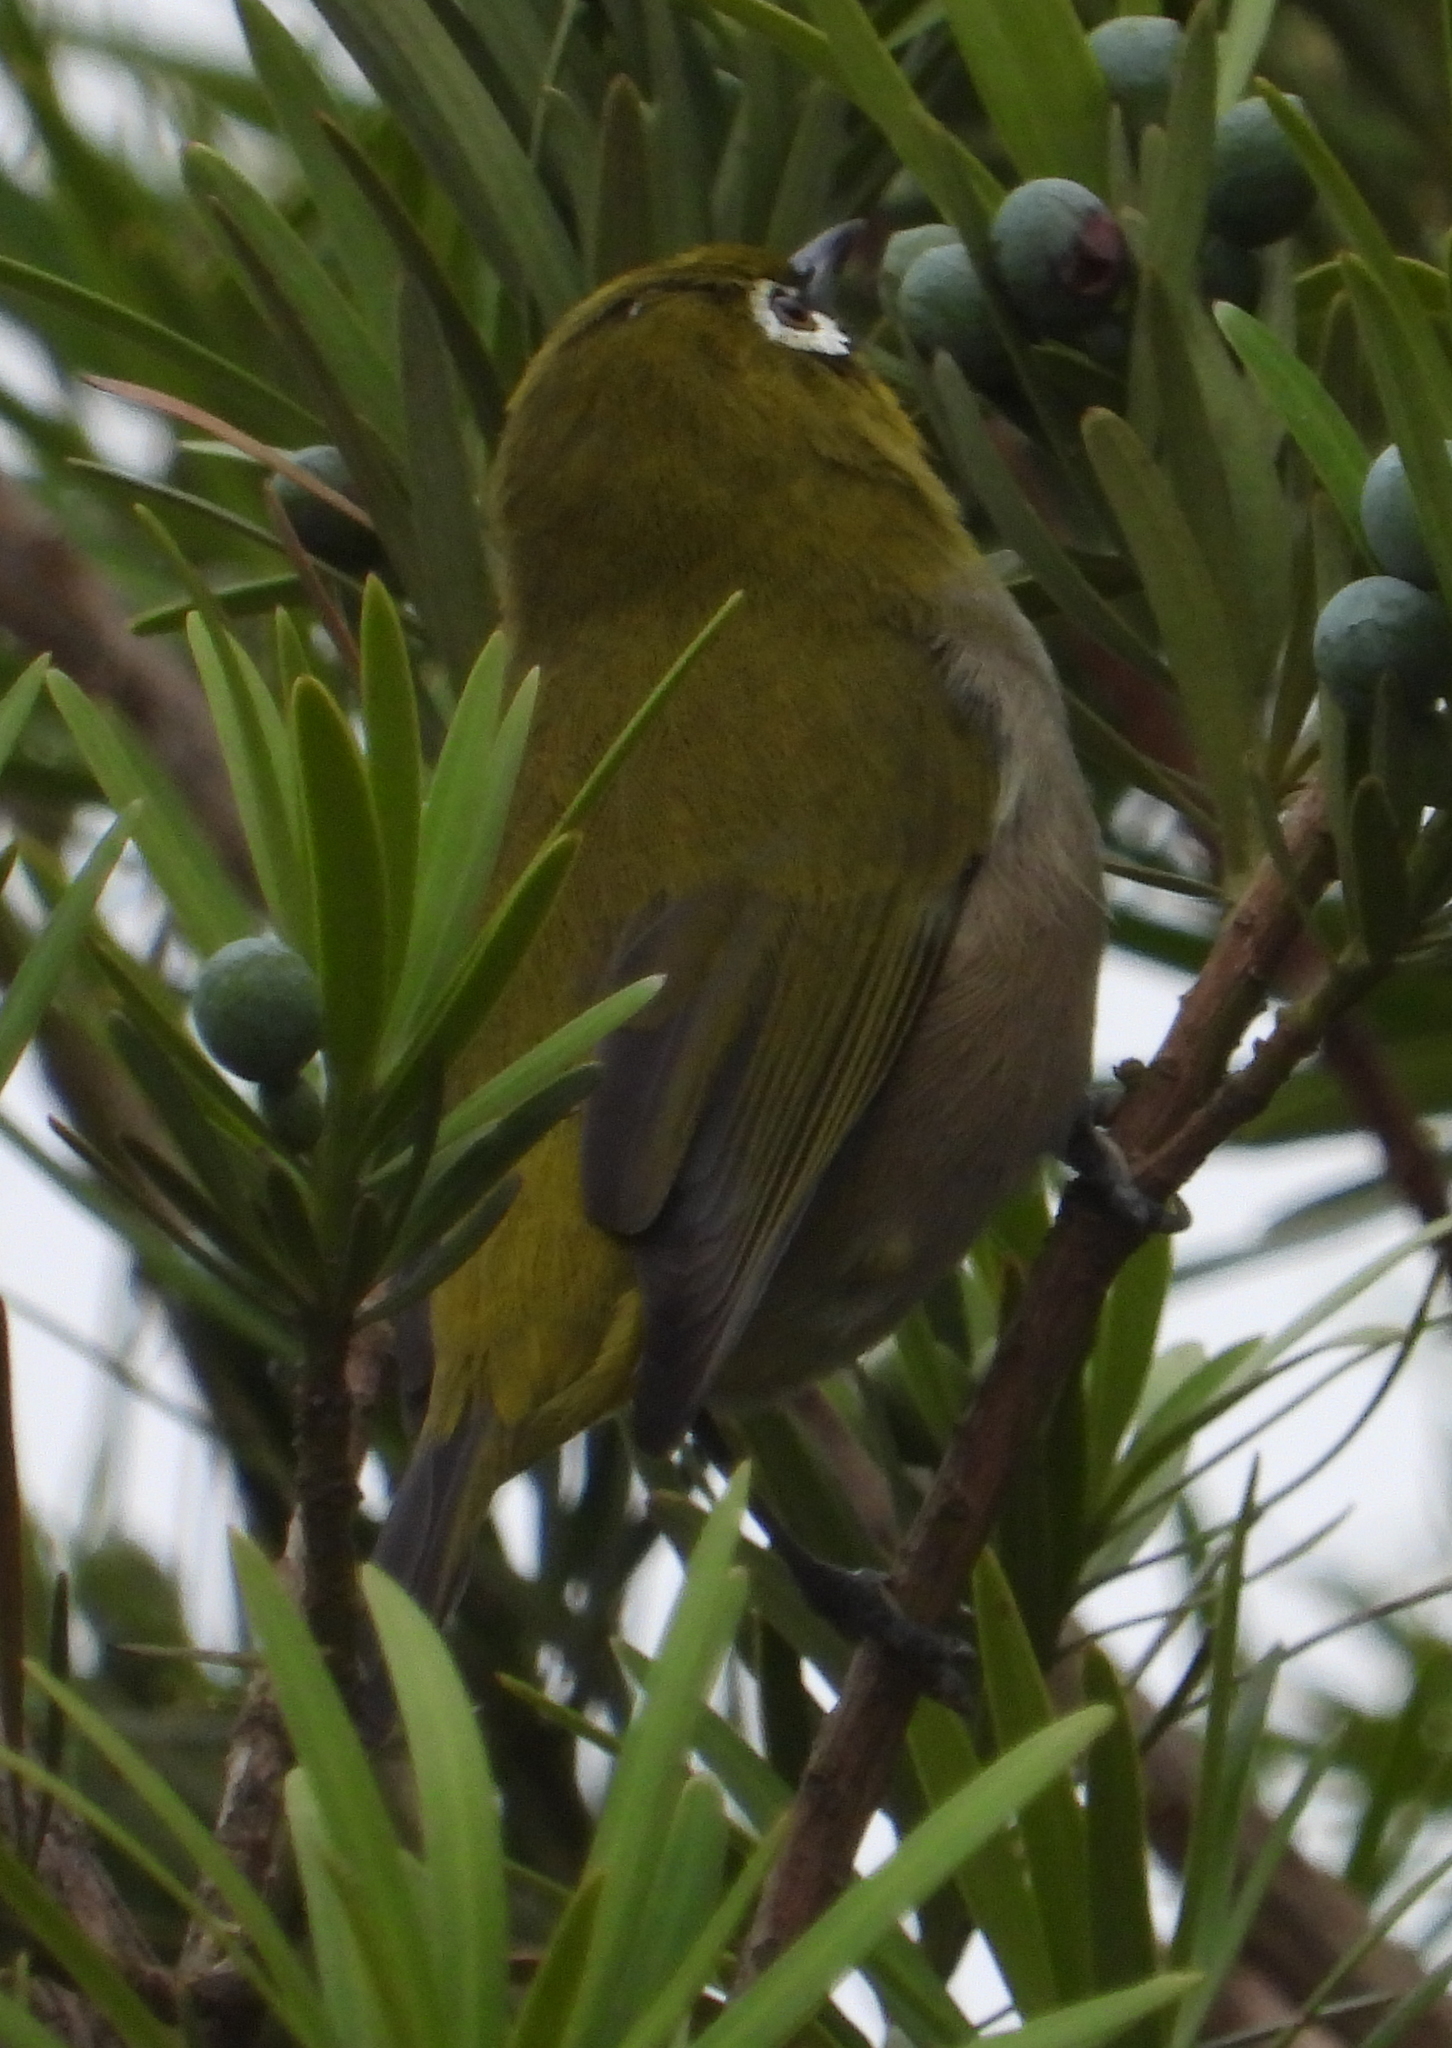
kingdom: Animalia
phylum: Chordata
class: Aves
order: Passeriformes
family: Zosteropidae
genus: Zosterops
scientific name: Zosterops virens
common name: Cape white-eye
